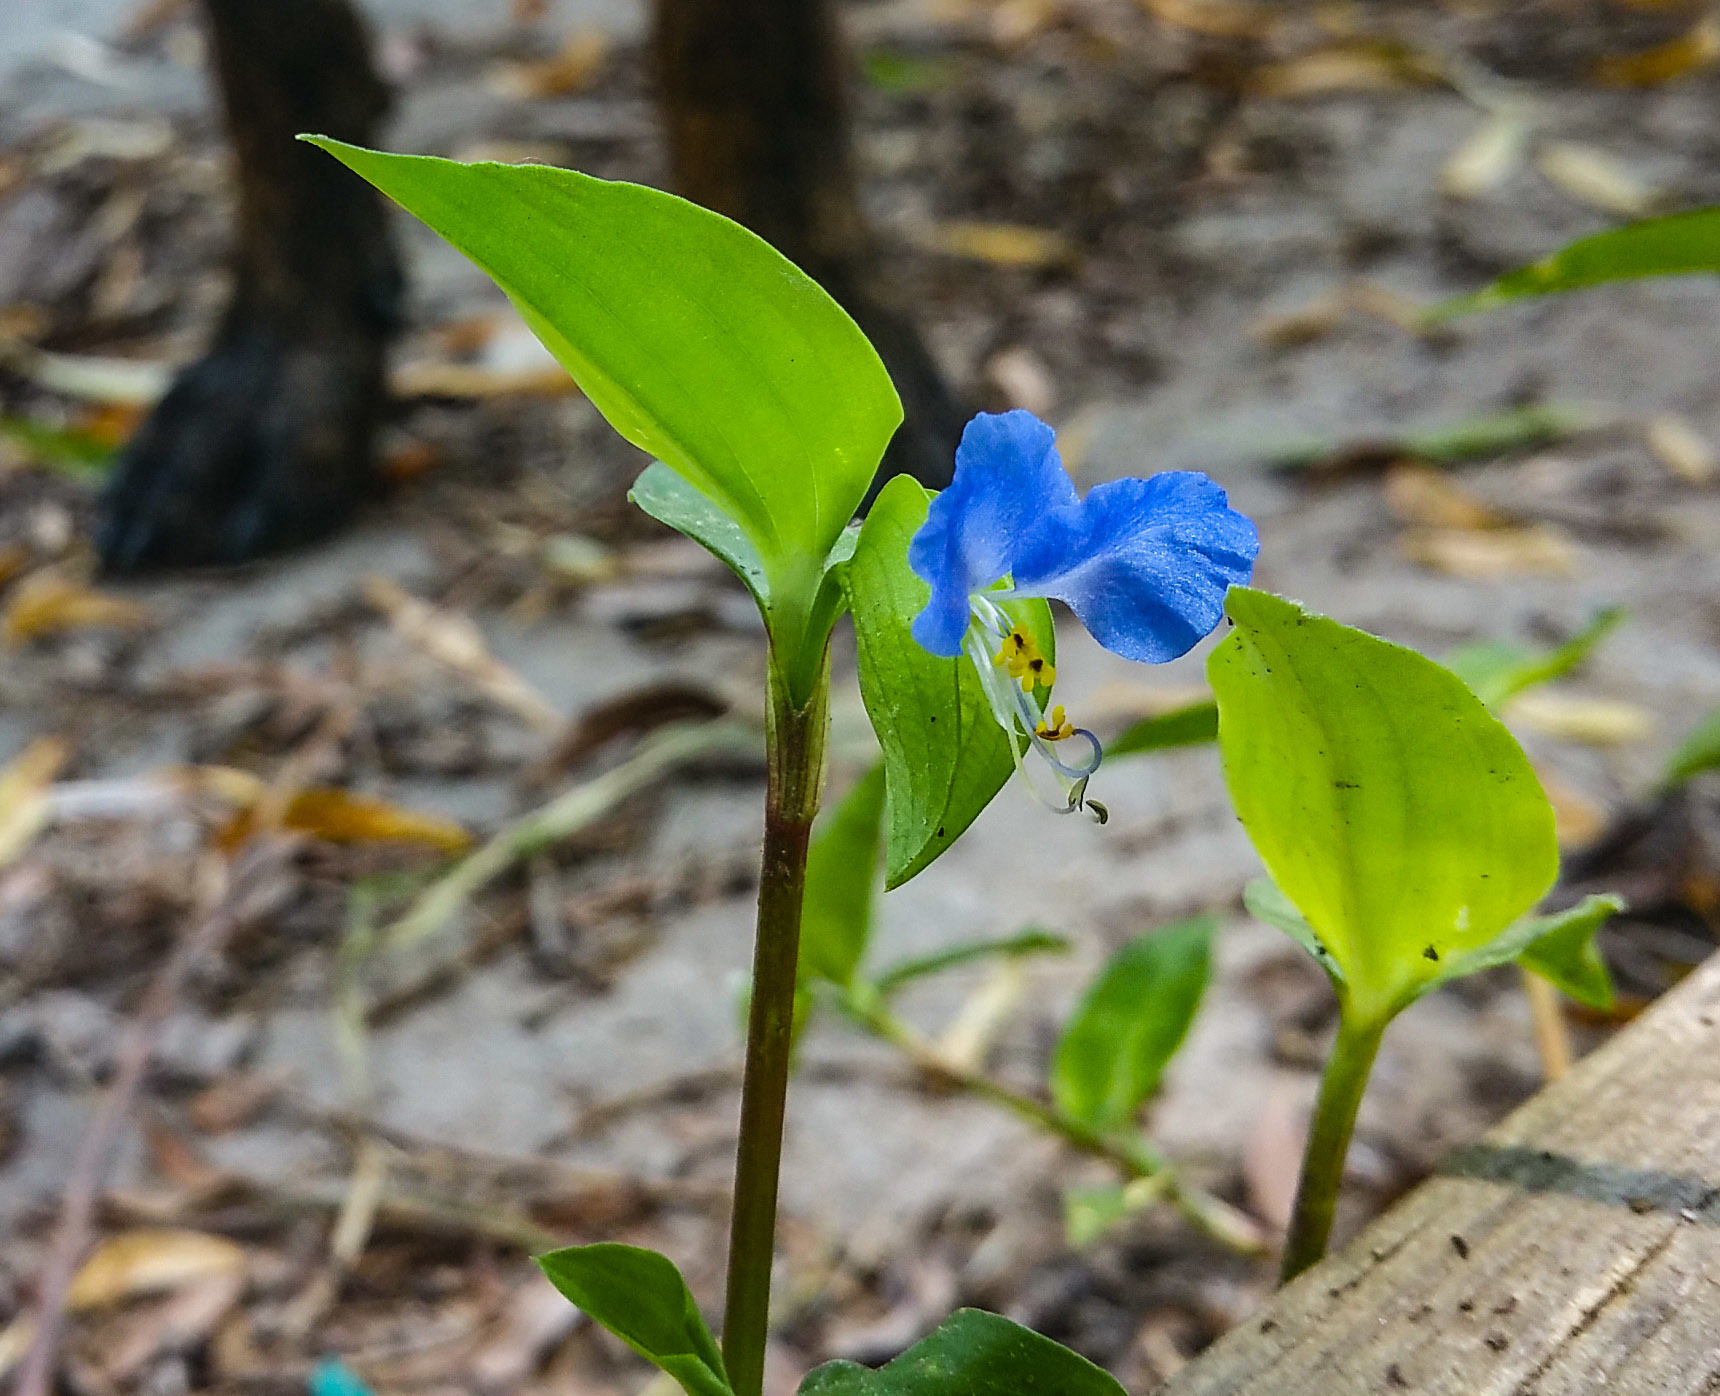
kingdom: Plantae
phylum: Tracheophyta
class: Liliopsida
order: Commelinales
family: Commelinaceae
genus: Commelina
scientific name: Commelina communis
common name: Asiatic dayflower
